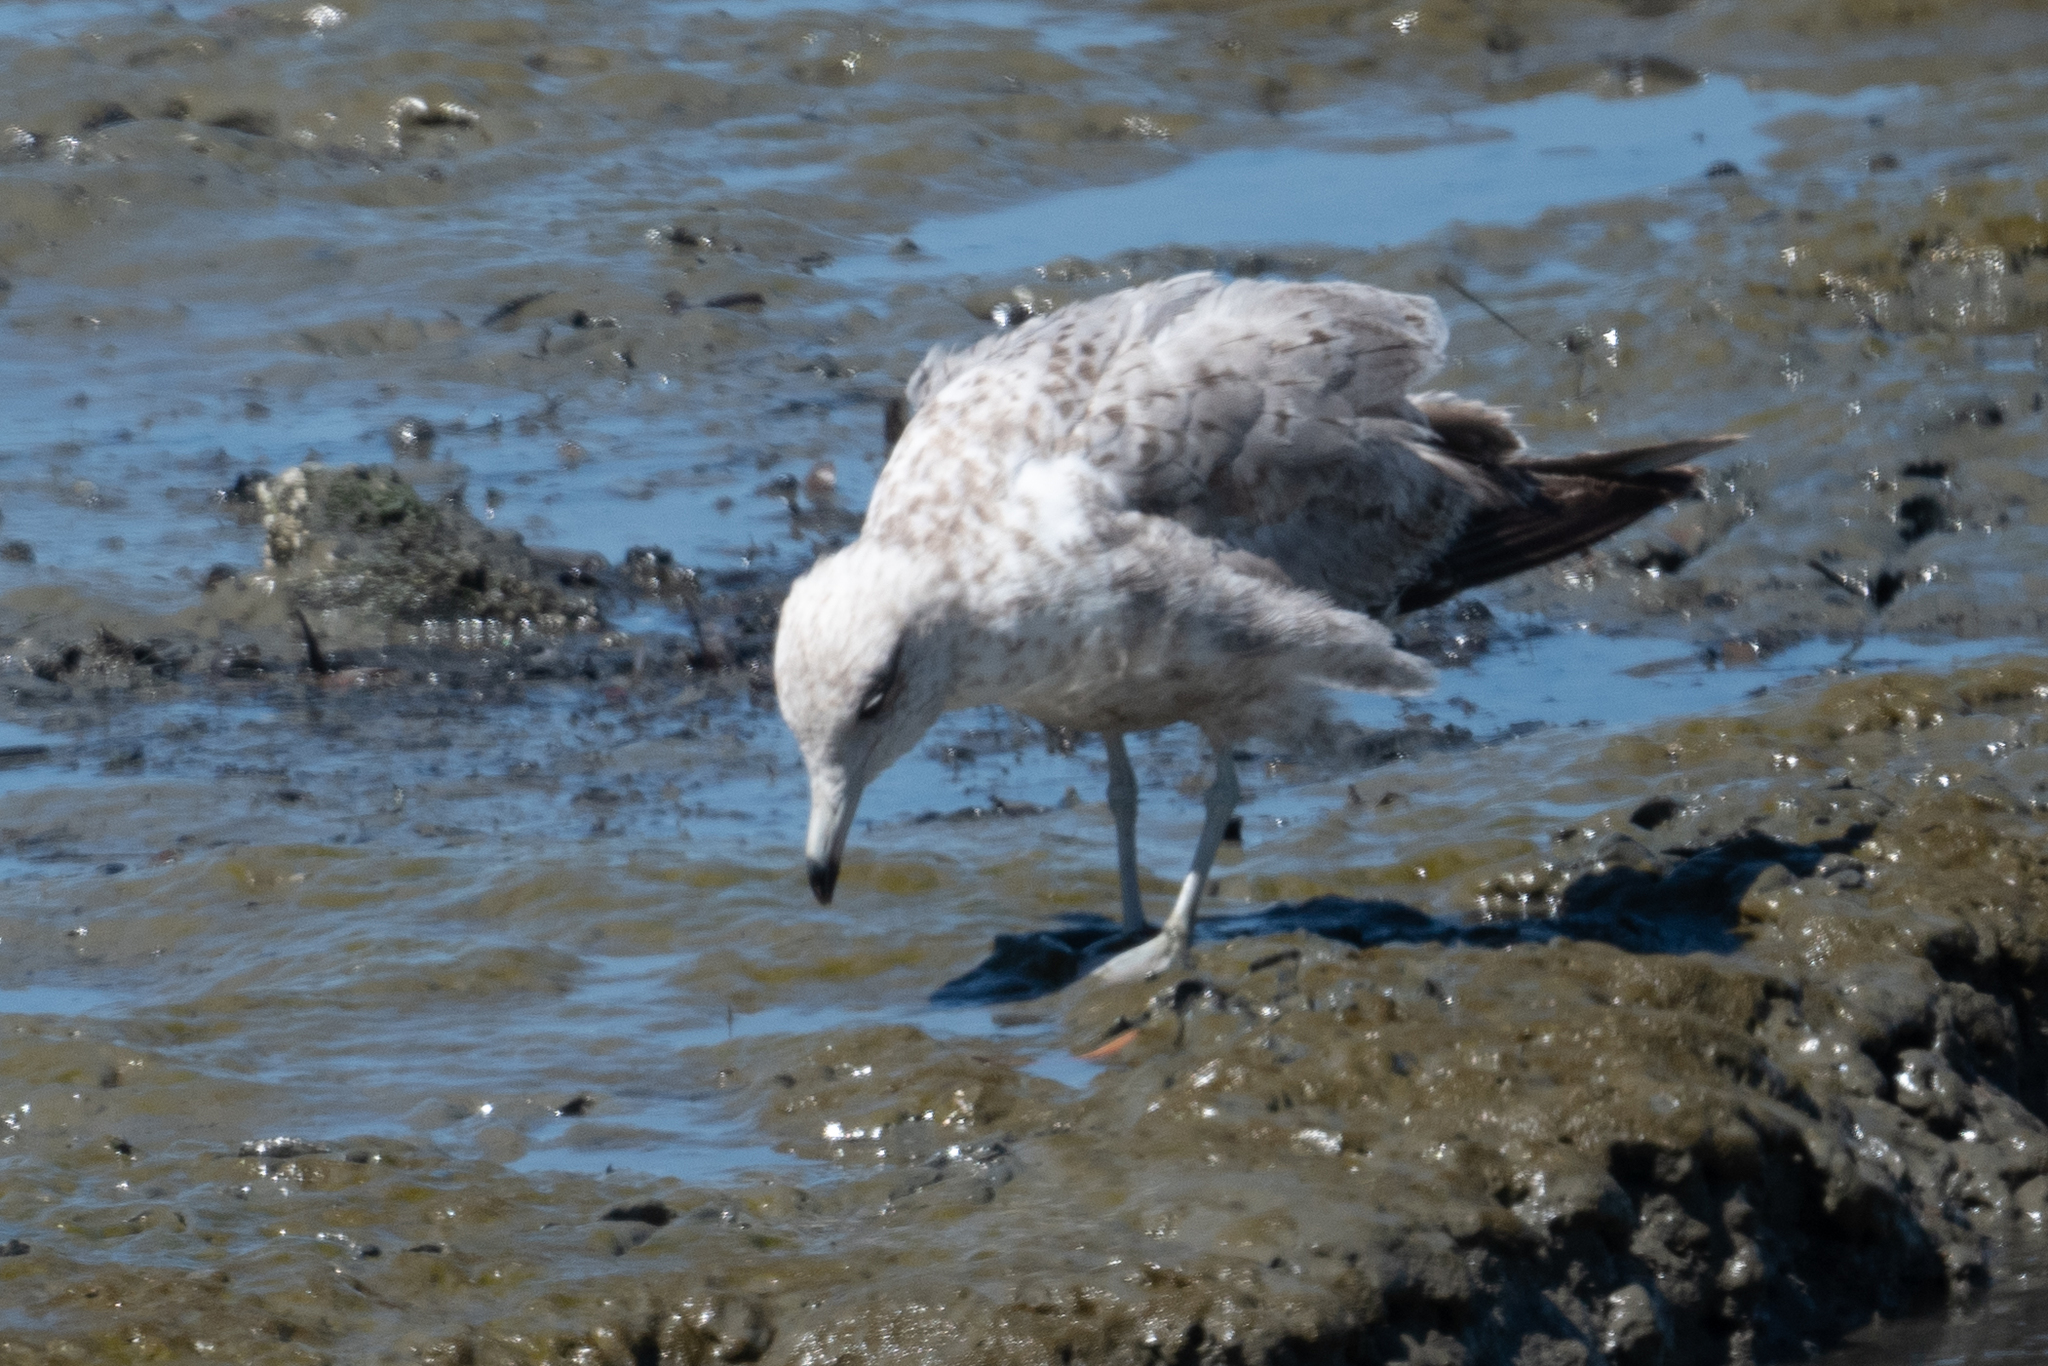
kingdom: Animalia
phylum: Chordata
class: Aves
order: Charadriiformes
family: Laridae
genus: Larus
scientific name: Larus californicus
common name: California gull
